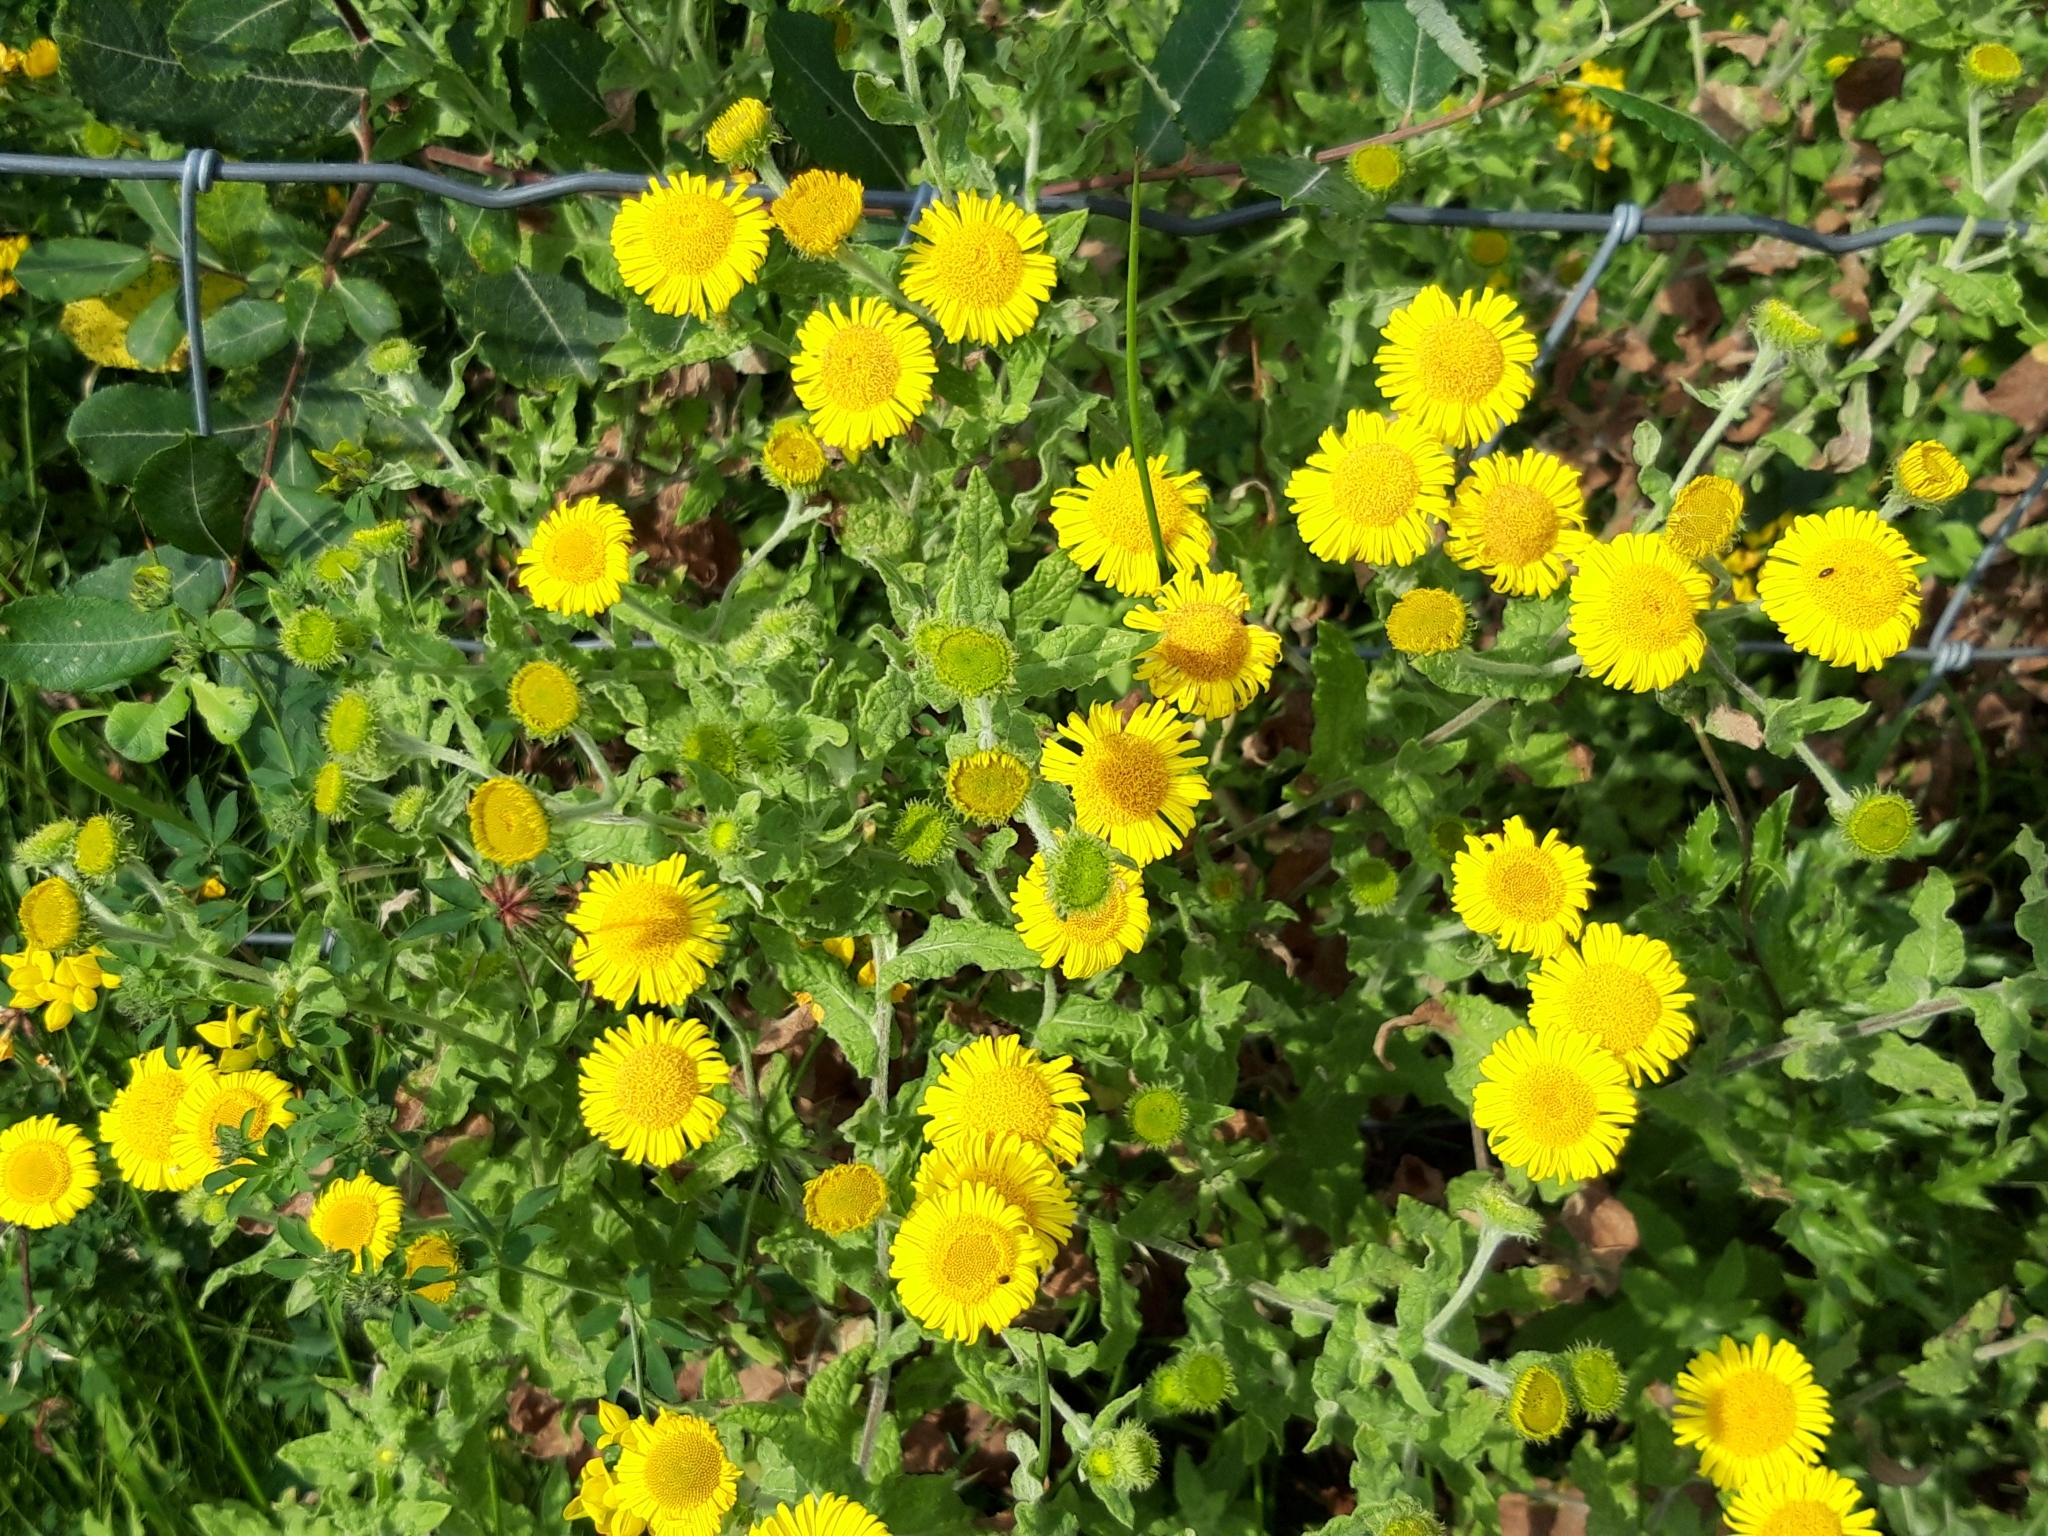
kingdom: Plantae
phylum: Tracheophyta
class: Magnoliopsida
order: Asterales
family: Asteraceae
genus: Pulicaria
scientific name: Pulicaria dysenterica
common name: Common fleabane
